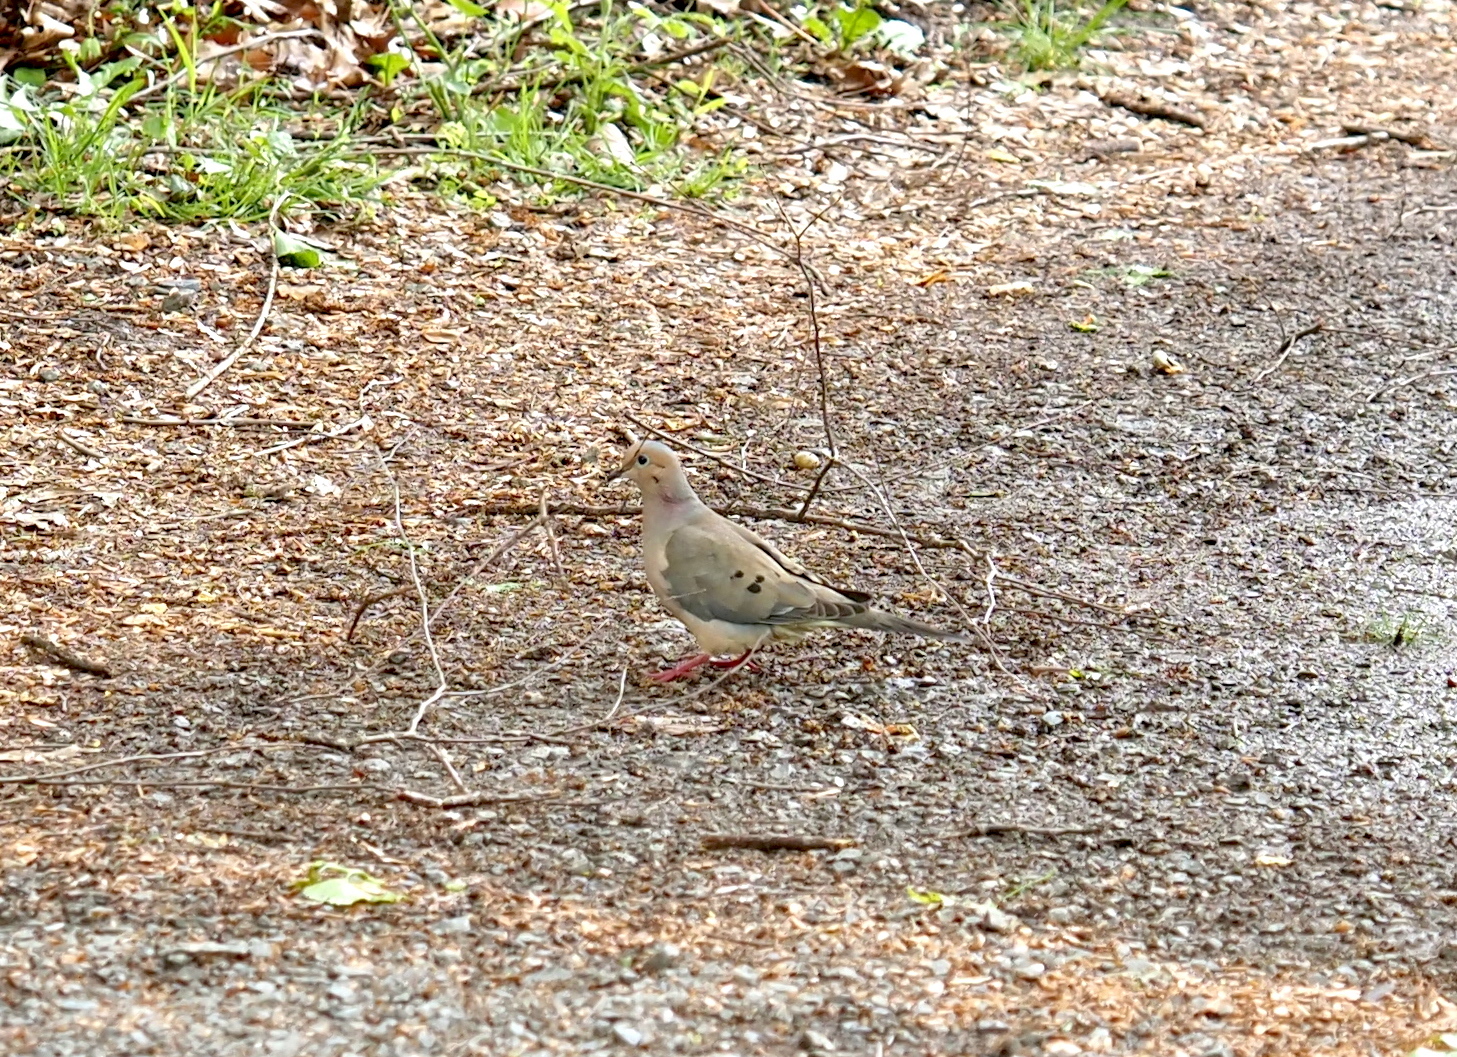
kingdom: Animalia
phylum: Chordata
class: Aves
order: Columbiformes
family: Columbidae
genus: Zenaida
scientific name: Zenaida macroura
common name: Mourning dove
